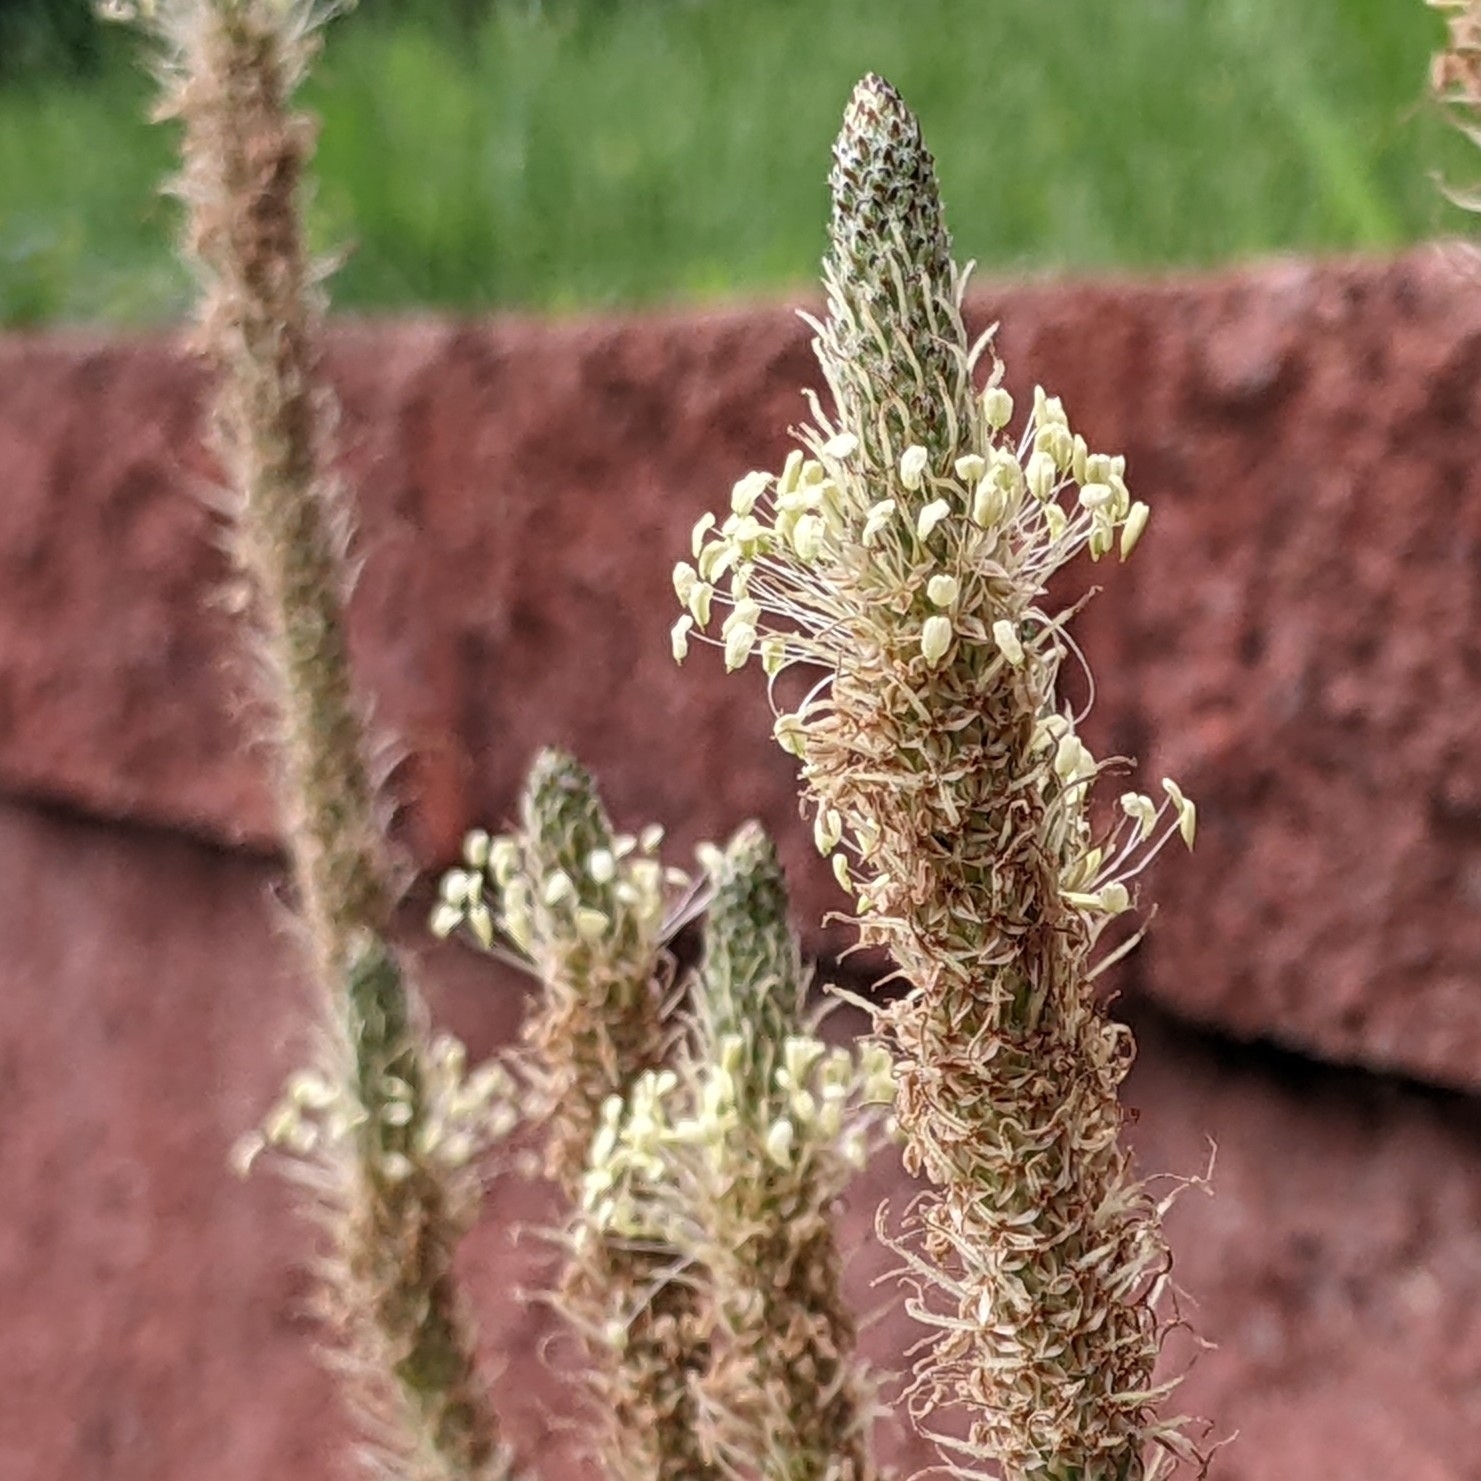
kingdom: Plantae
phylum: Tracheophyta
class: Magnoliopsida
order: Lamiales
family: Plantaginaceae
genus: Plantago
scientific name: Plantago lanceolata
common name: Ribwort plantain
